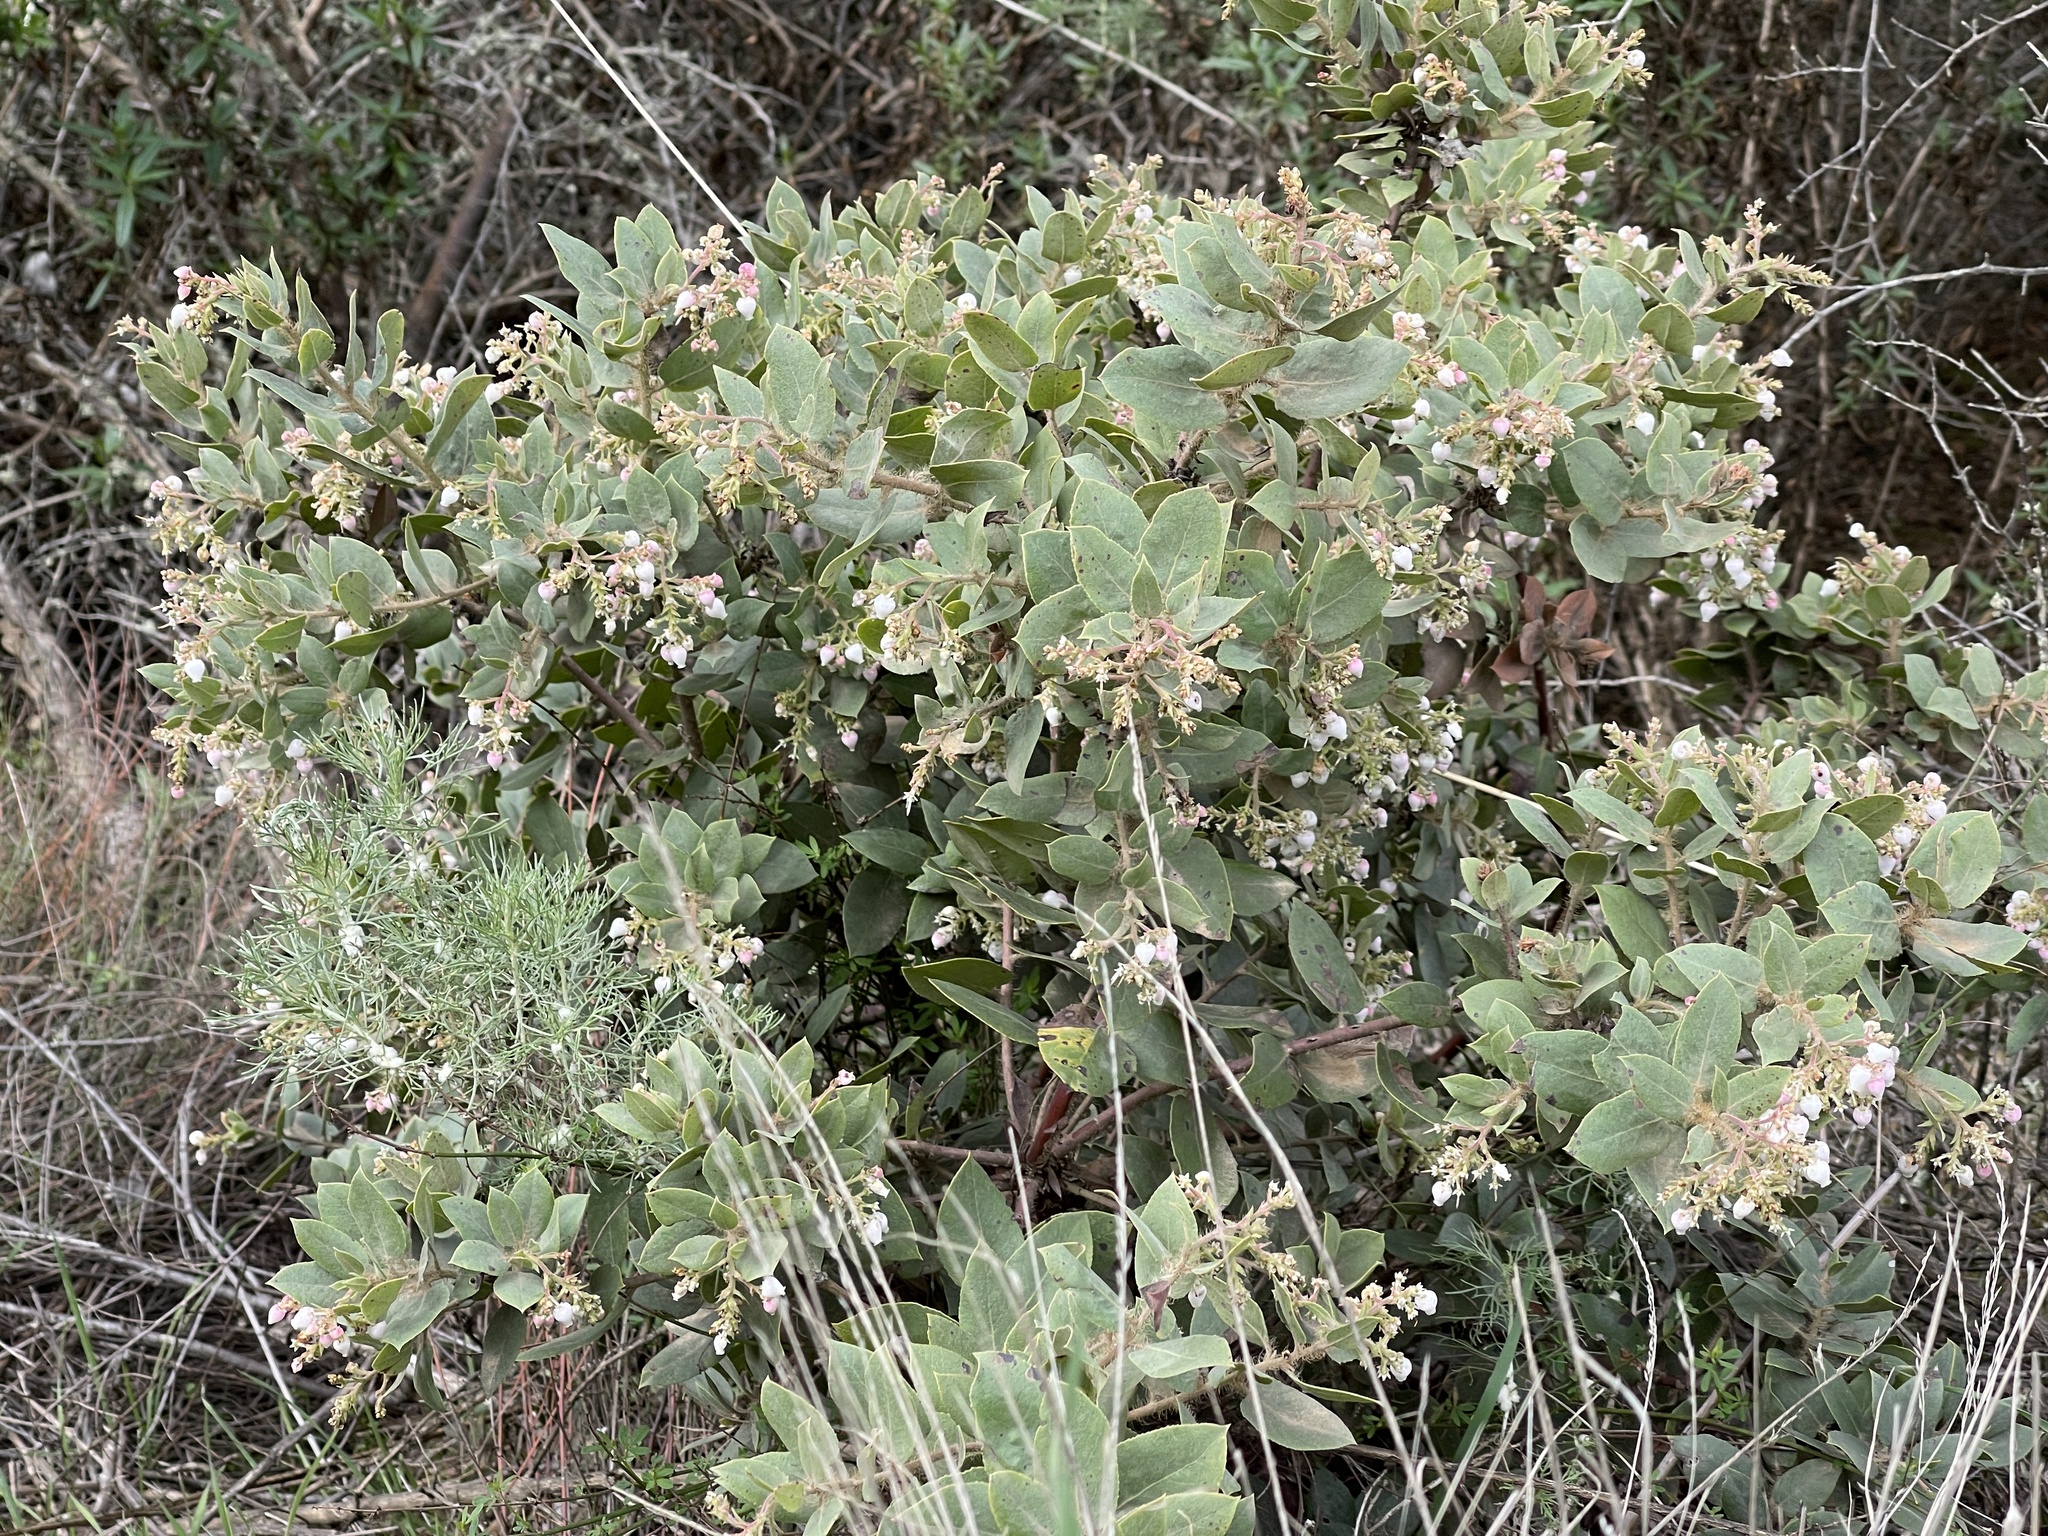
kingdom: Plantae
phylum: Tracheophyta
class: Magnoliopsida
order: Ericales
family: Ericaceae
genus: Arctostaphylos
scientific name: Arctostaphylos crustacea
